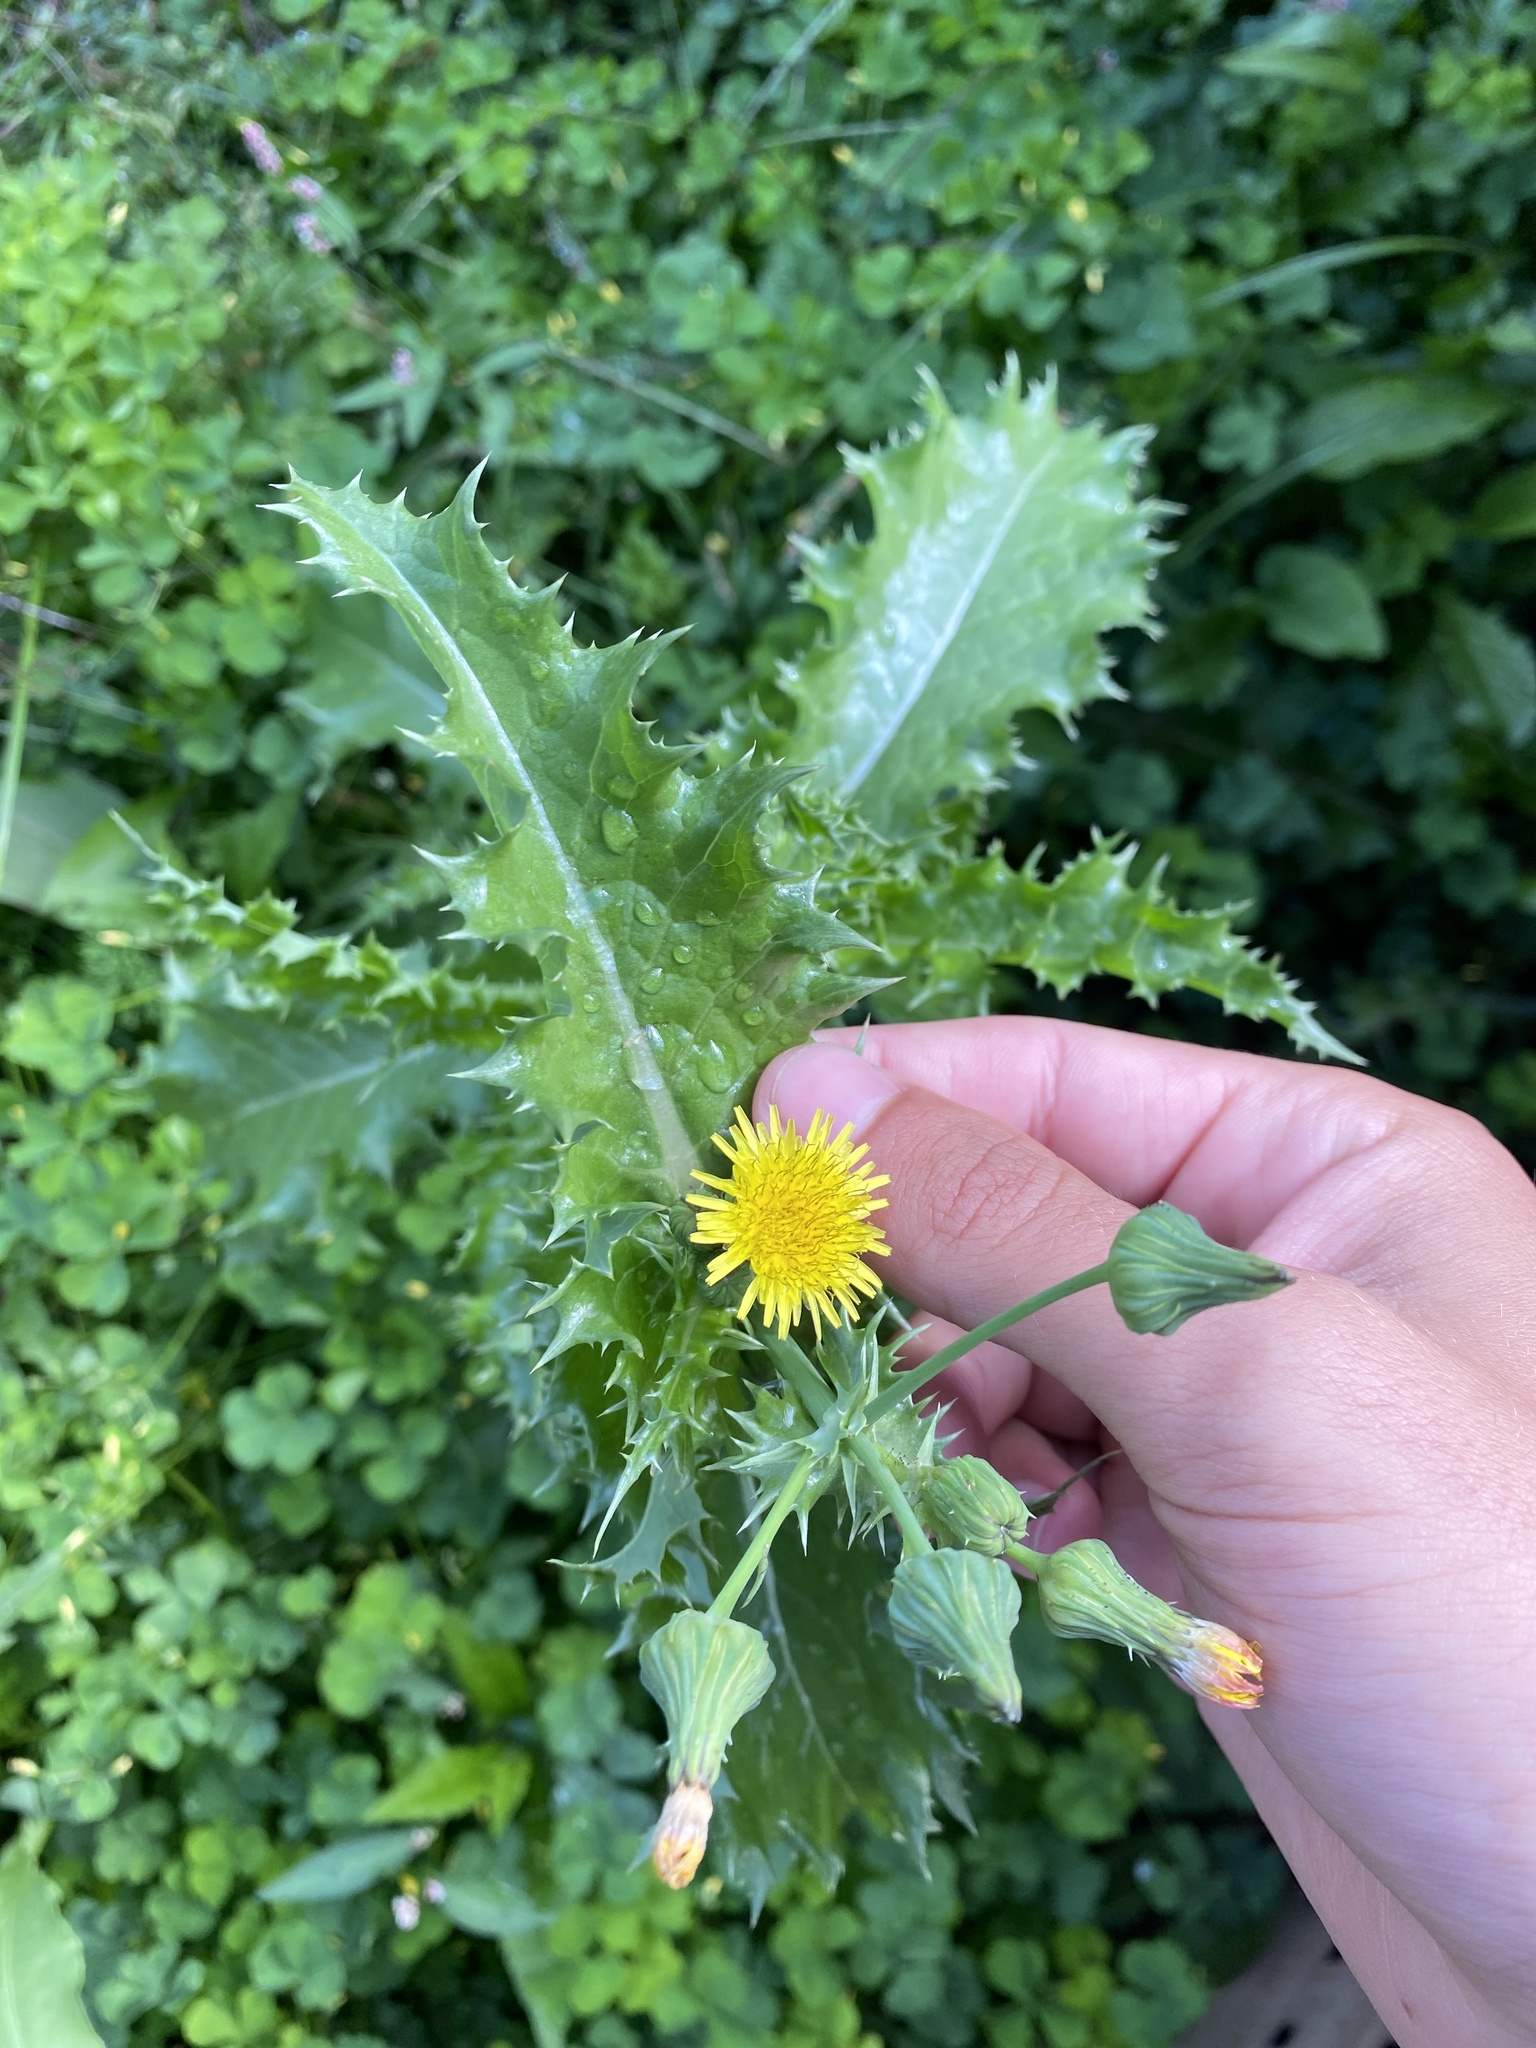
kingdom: Plantae
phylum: Tracheophyta
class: Magnoliopsida
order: Asterales
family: Asteraceae
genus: Sonchus
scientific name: Sonchus asper
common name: Prickly sow-thistle
